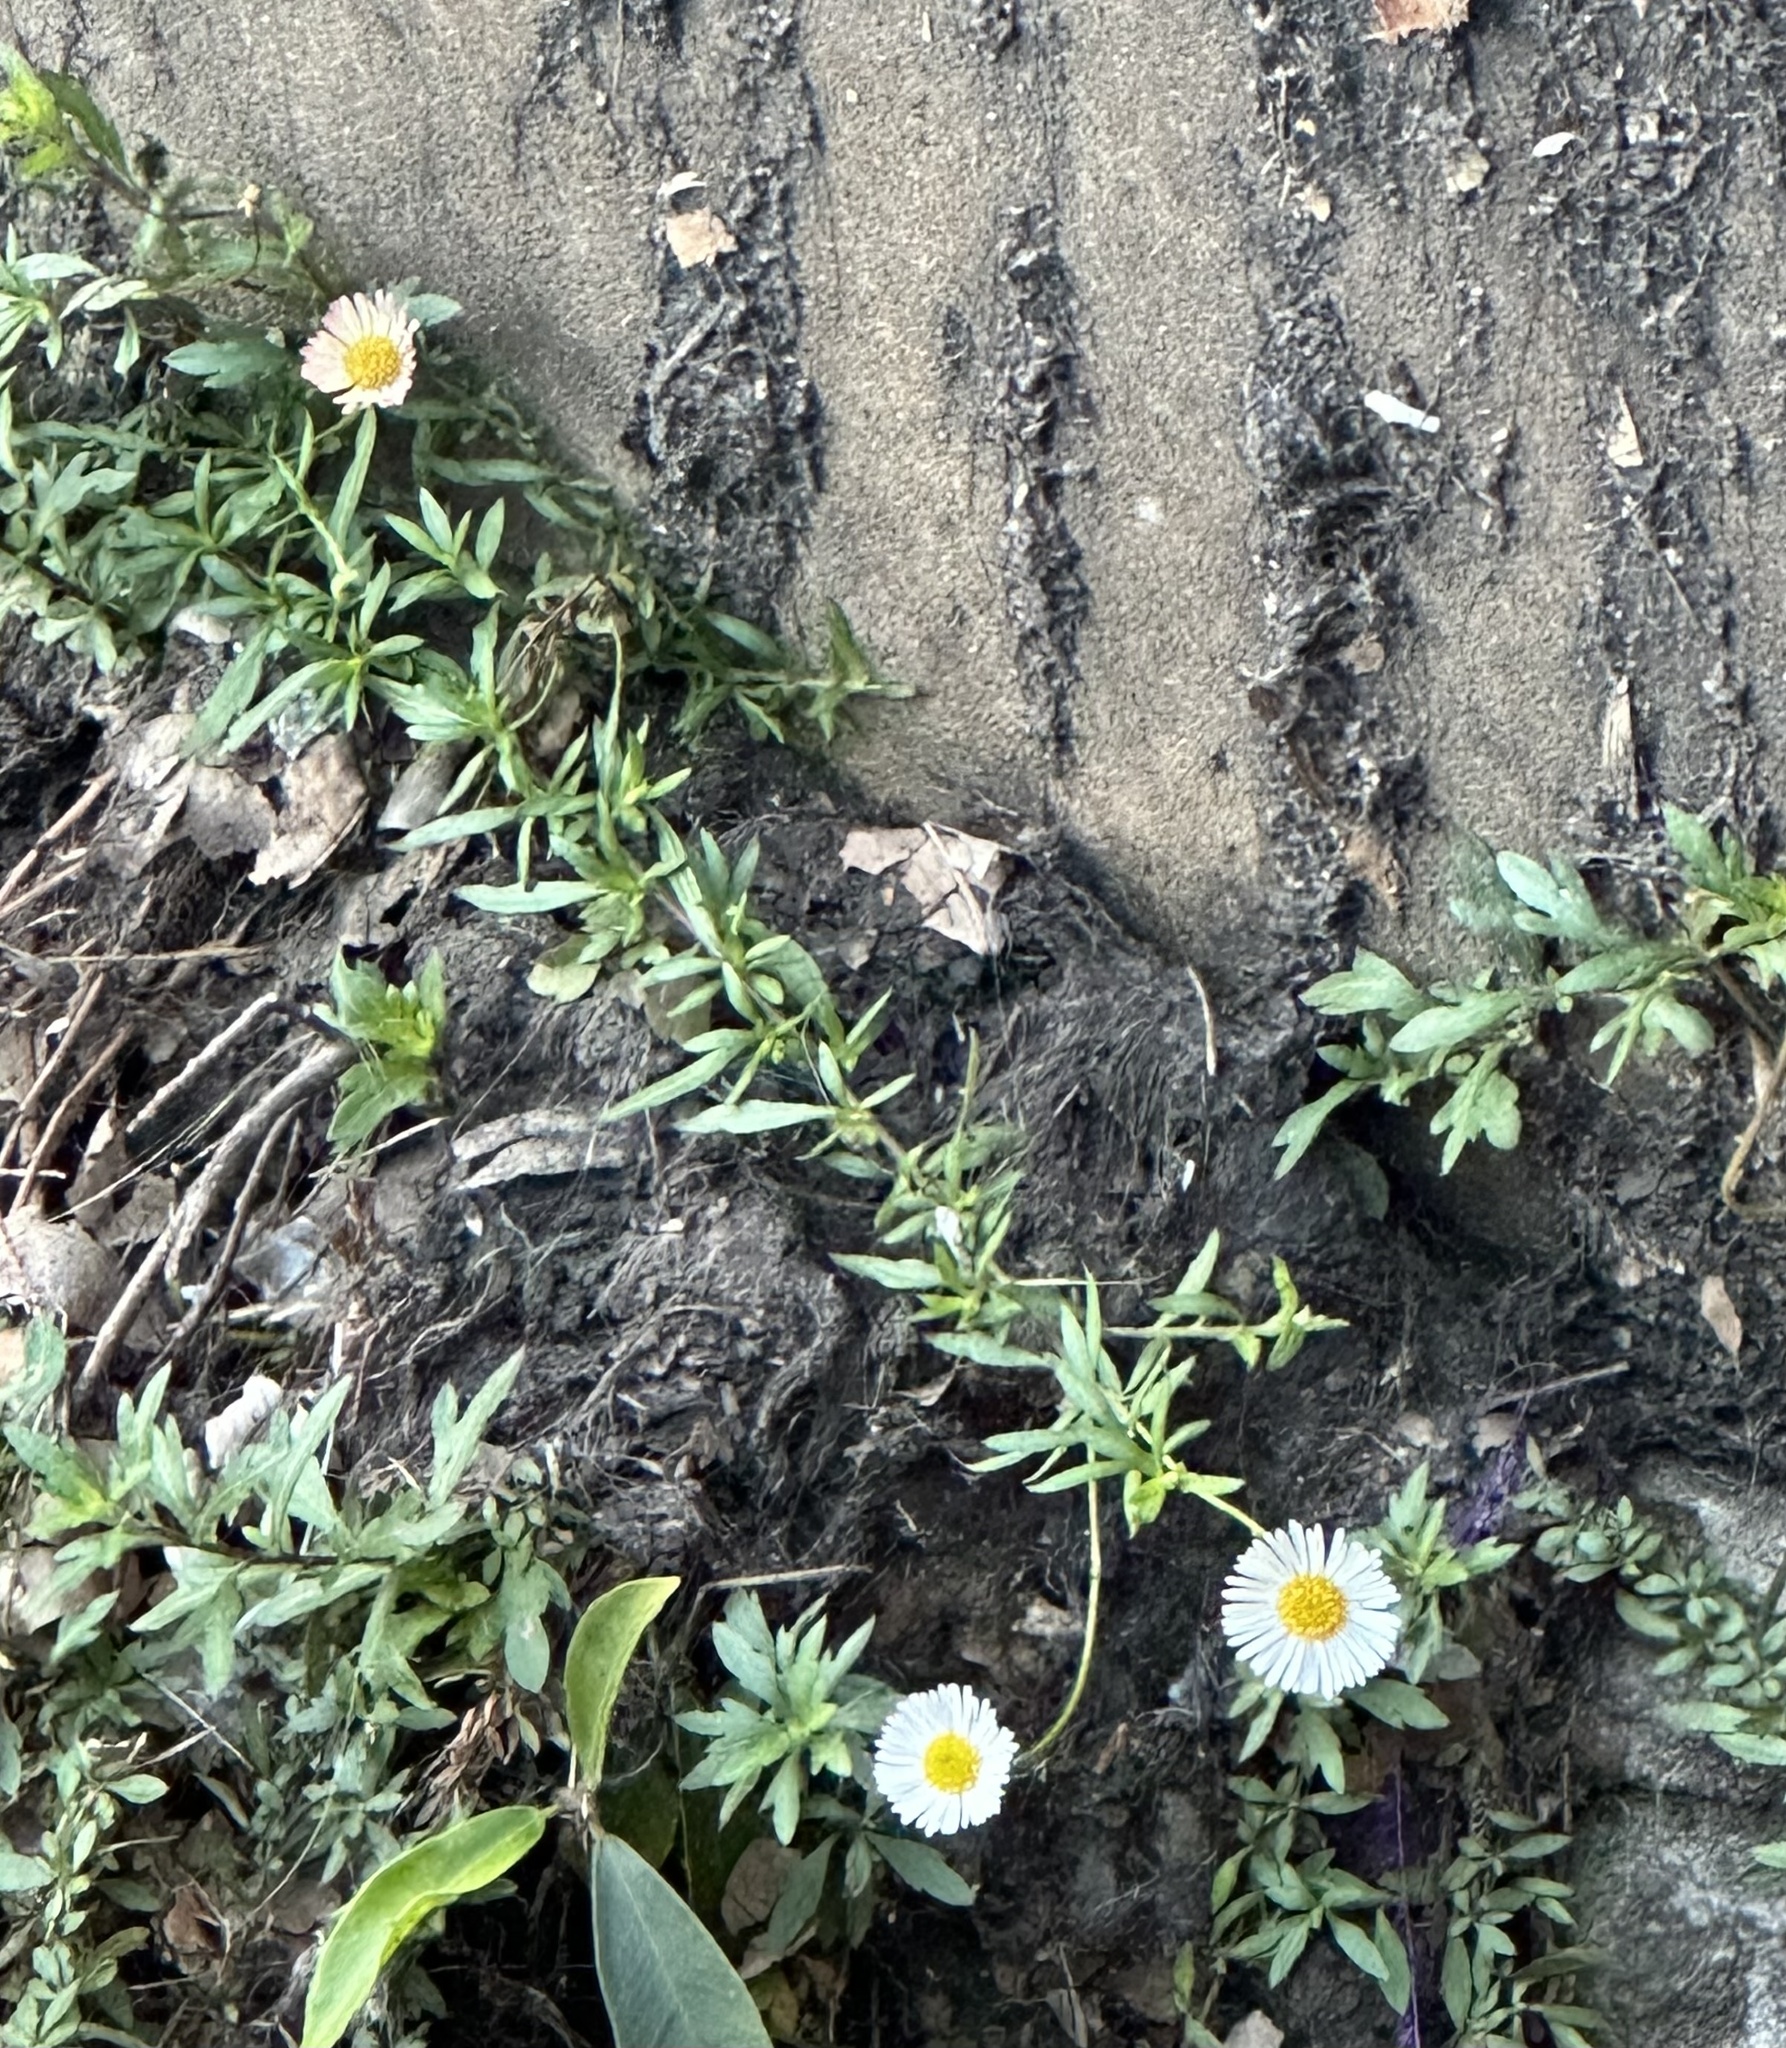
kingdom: Plantae
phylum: Tracheophyta
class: Magnoliopsida
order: Asterales
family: Asteraceae
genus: Erigeron
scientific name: Erigeron karvinskianus
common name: Mexican fleabane
